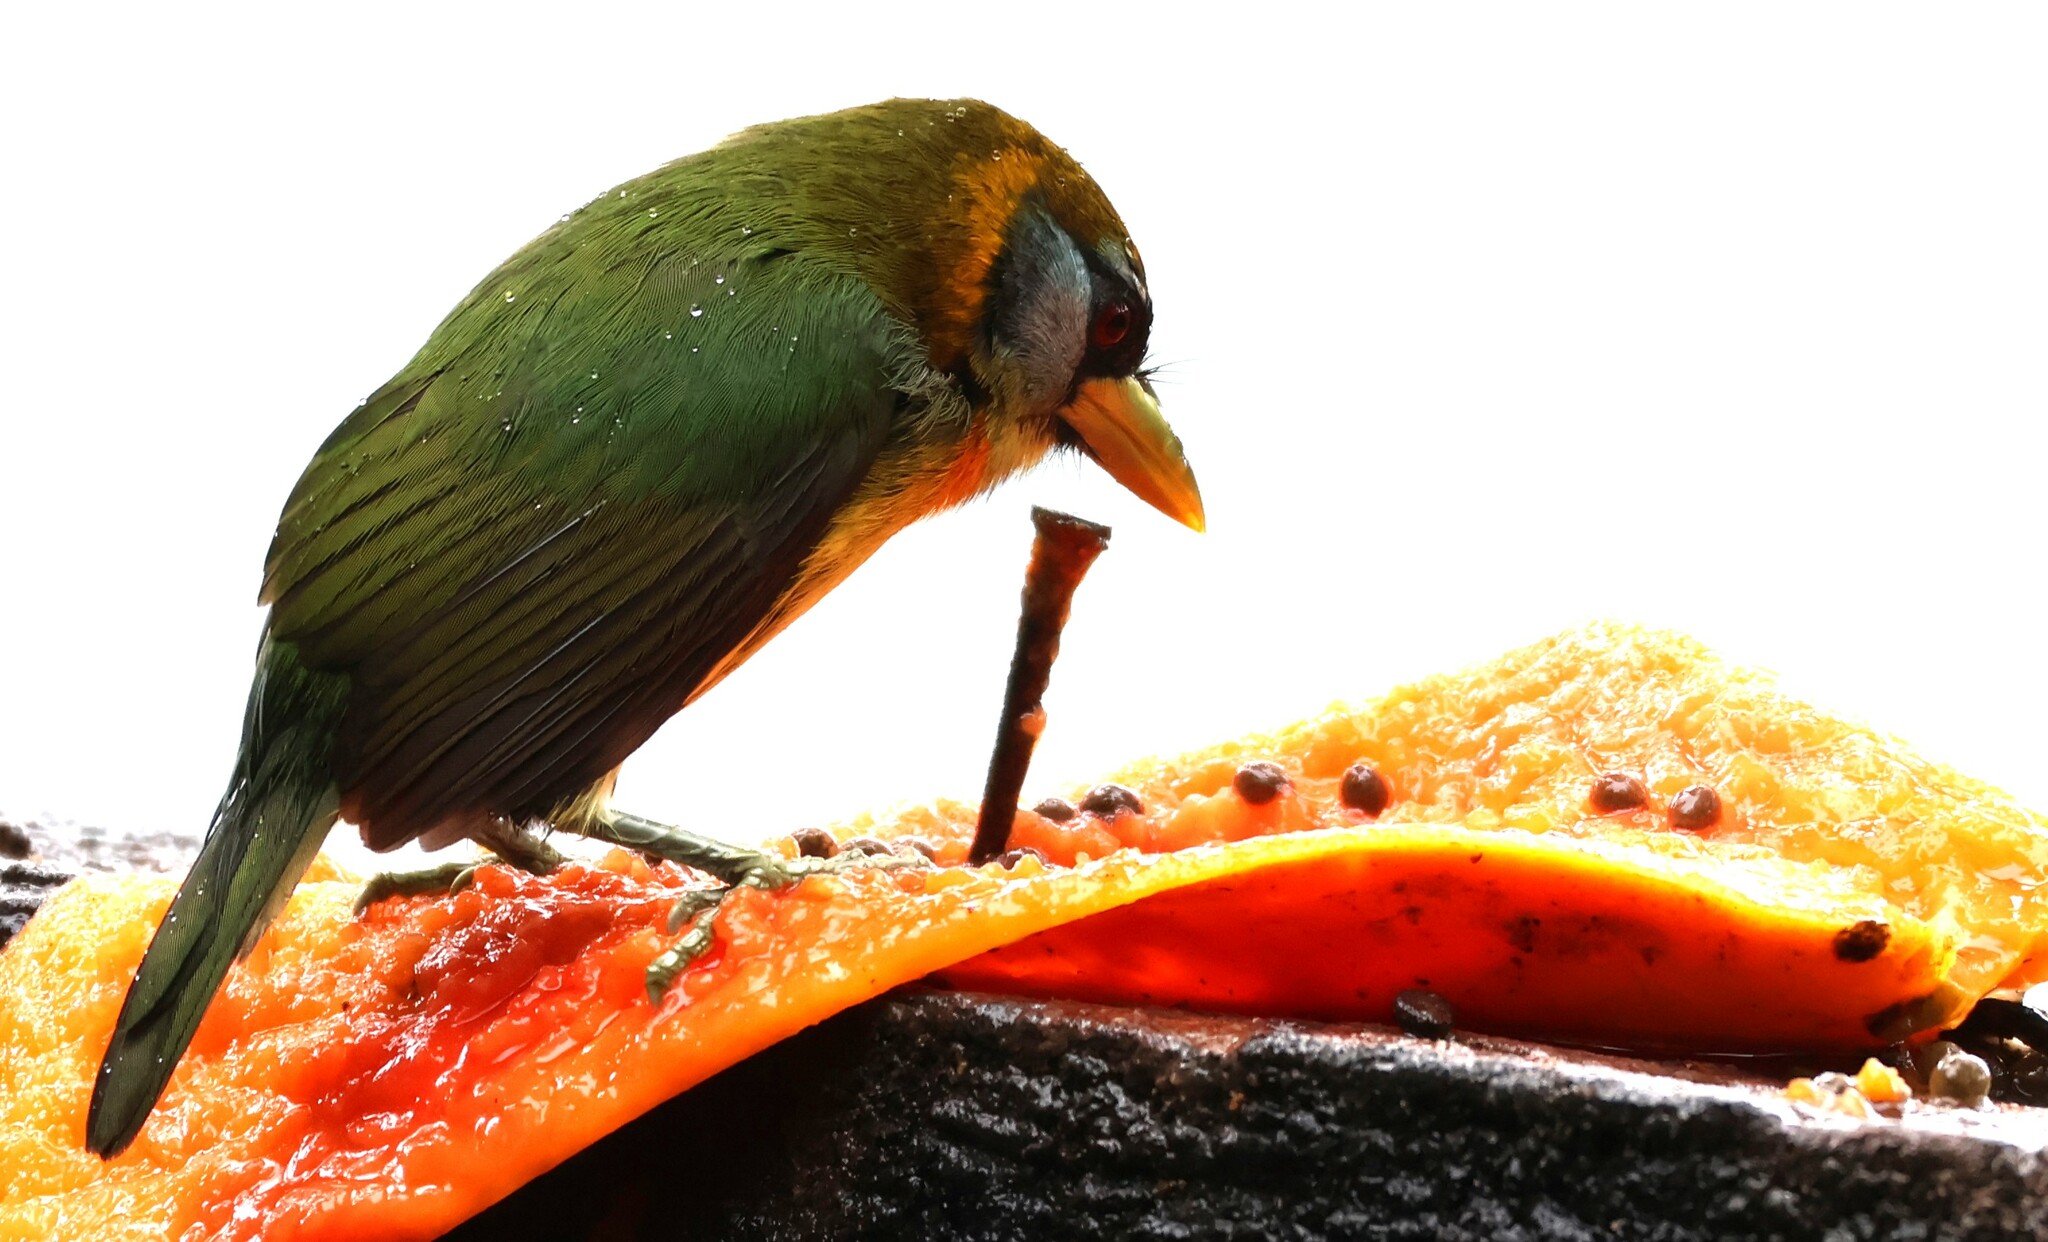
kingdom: Animalia
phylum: Chordata
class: Aves
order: Piciformes
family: Capitonidae
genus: Eubucco
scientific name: Eubucco bourcierii
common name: Red-headed barbet
